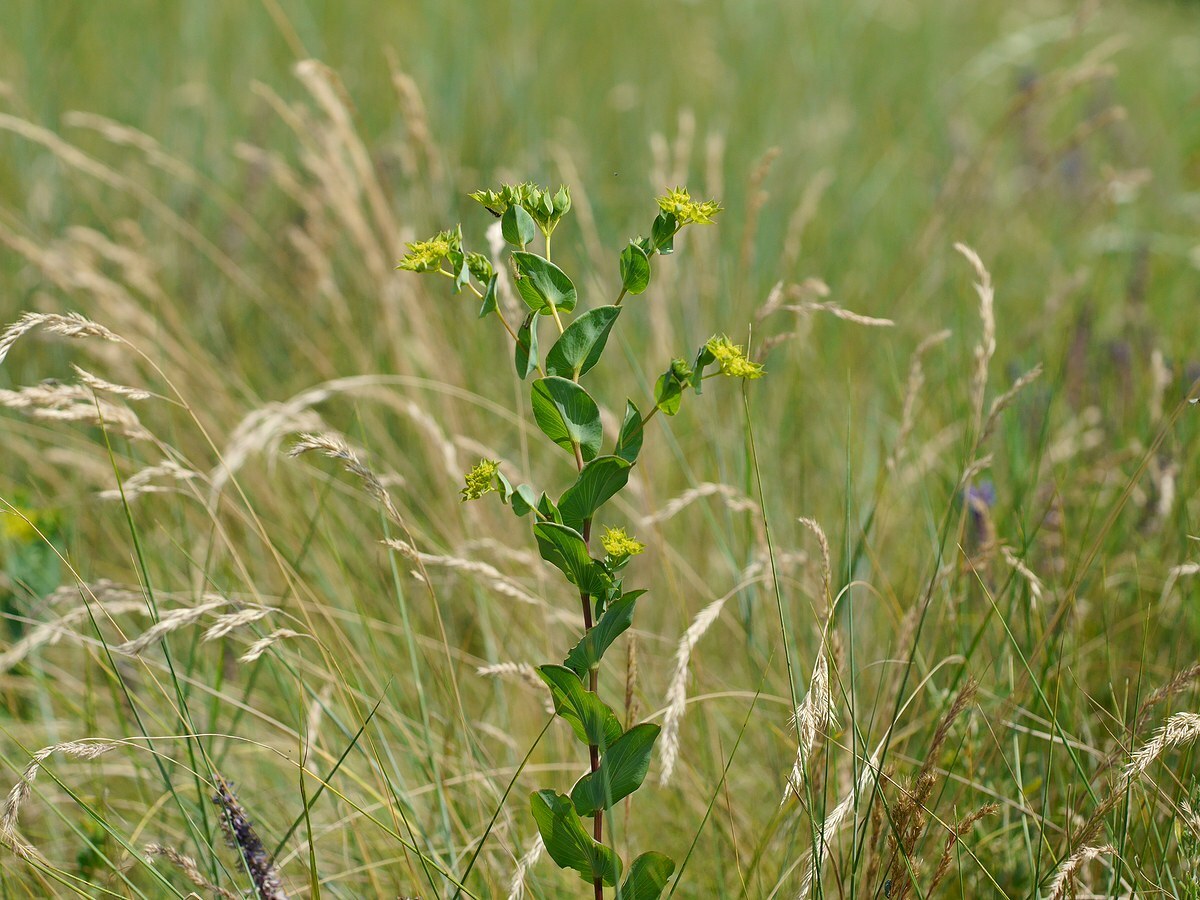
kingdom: Plantae
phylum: Tracheophyta
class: Magnoliopsida
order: Apiales
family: Apiaceae
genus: Bupleurum
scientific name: Bupleurum rotundifolium
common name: Thorow-wax
